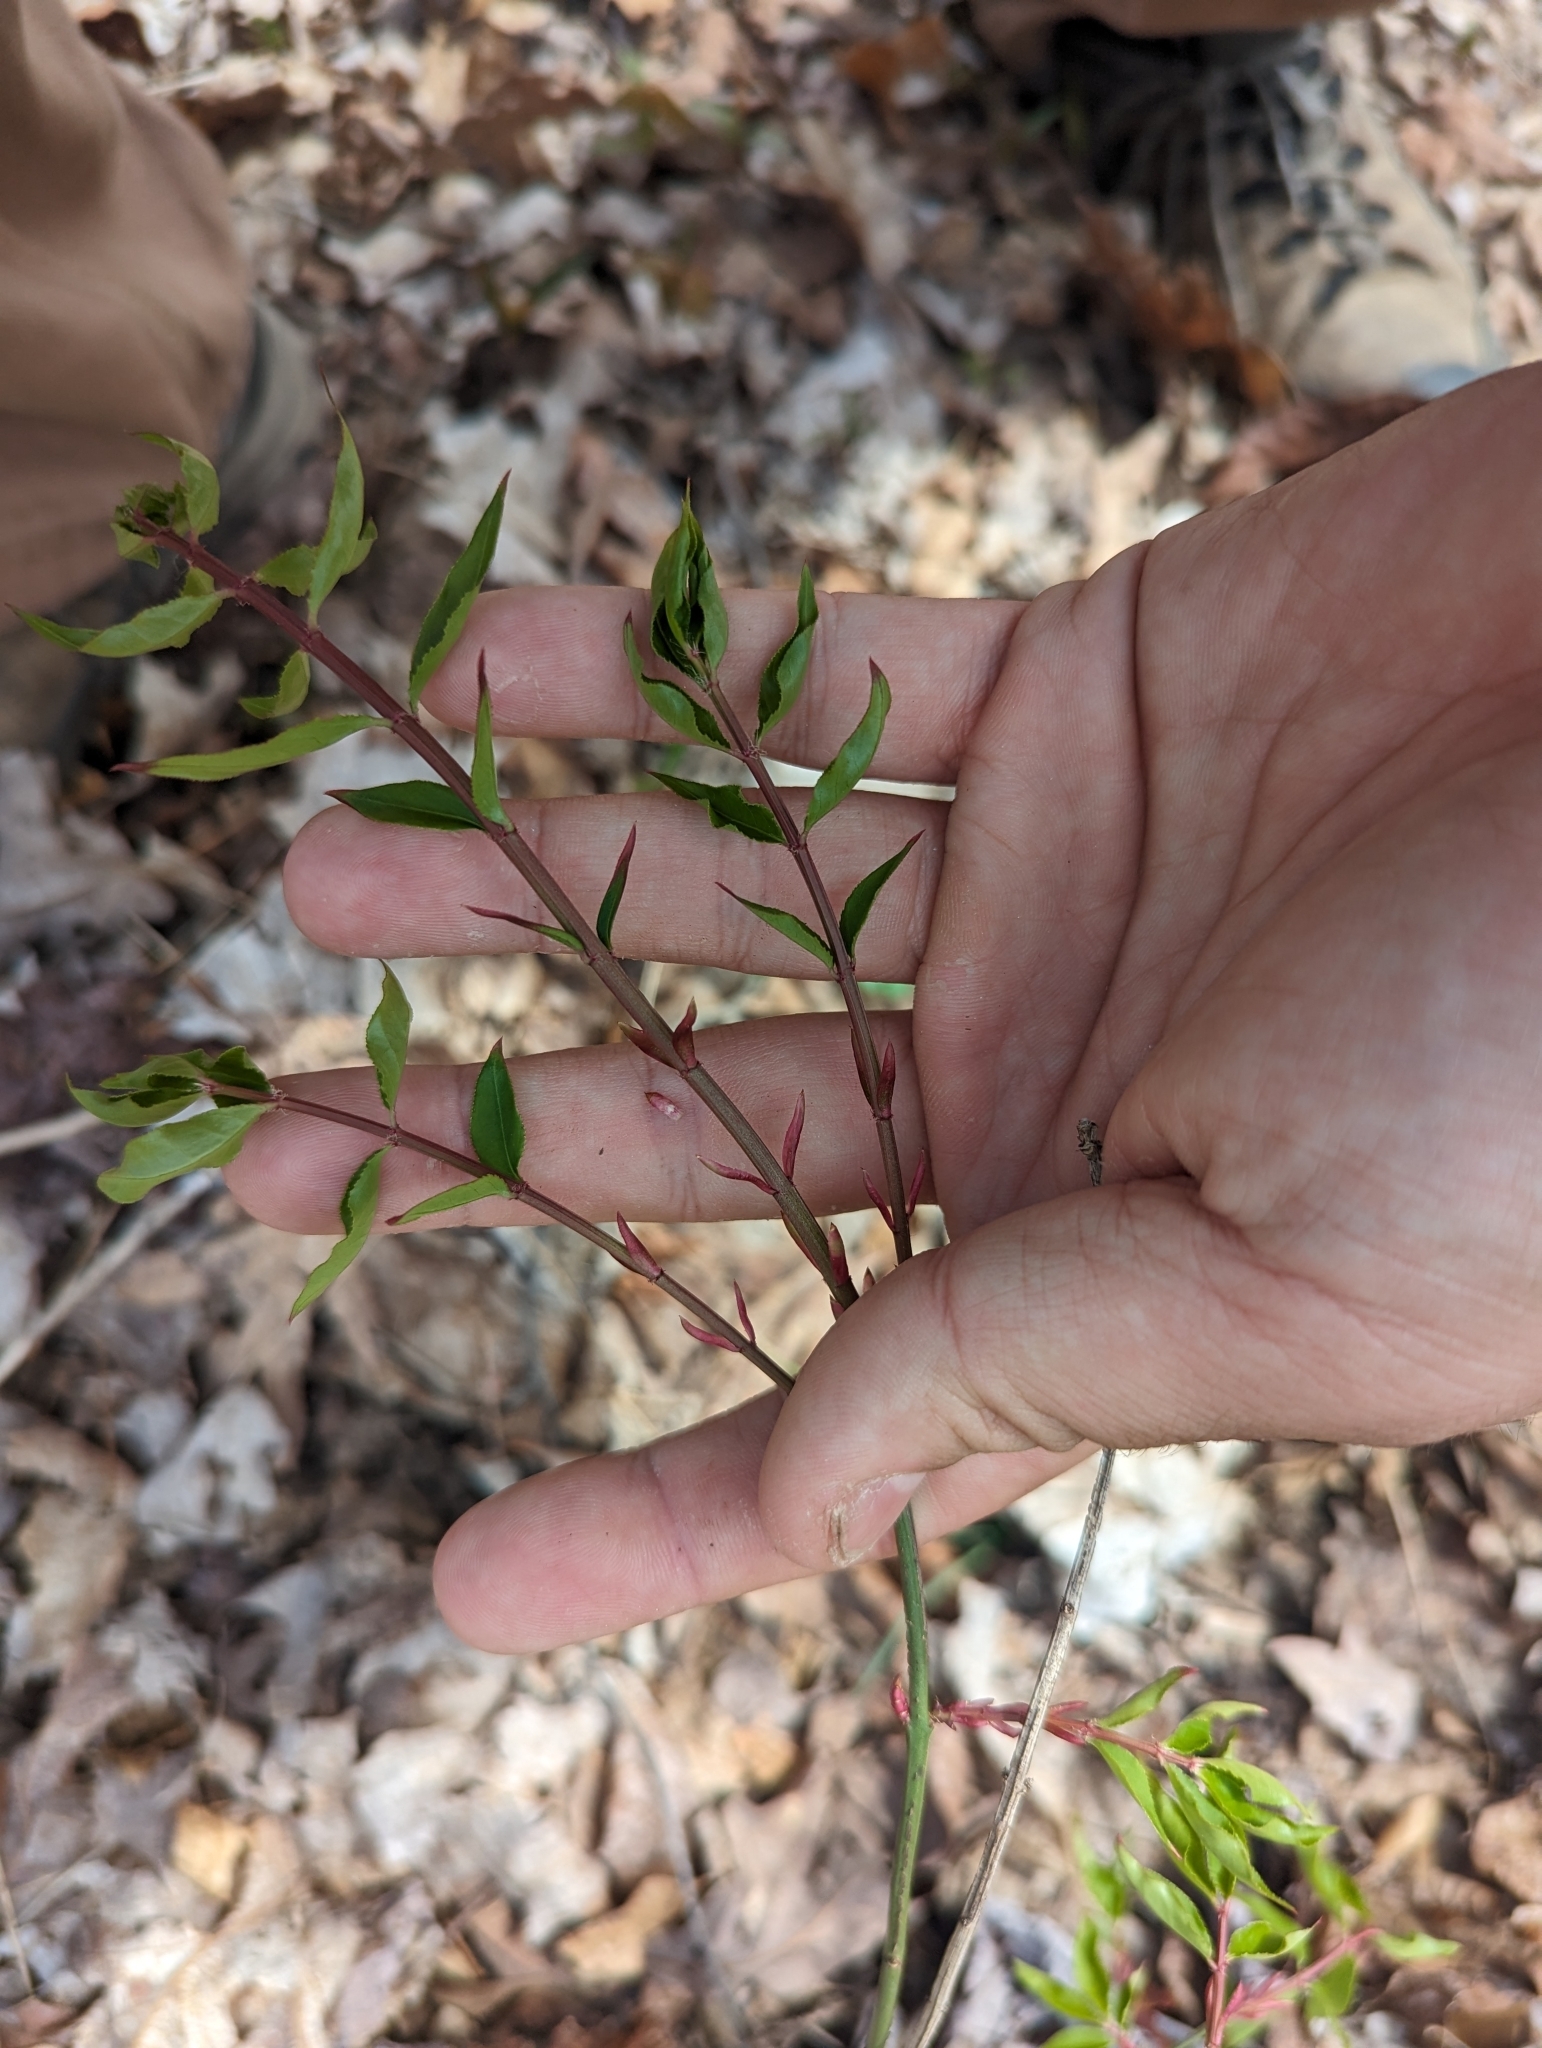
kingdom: Plantae
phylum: Tracheophyta
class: Magnoliopsida
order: Celastrales
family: Celastraceae
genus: Euonymus
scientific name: Euonymus alatus
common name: Winged euonymus
